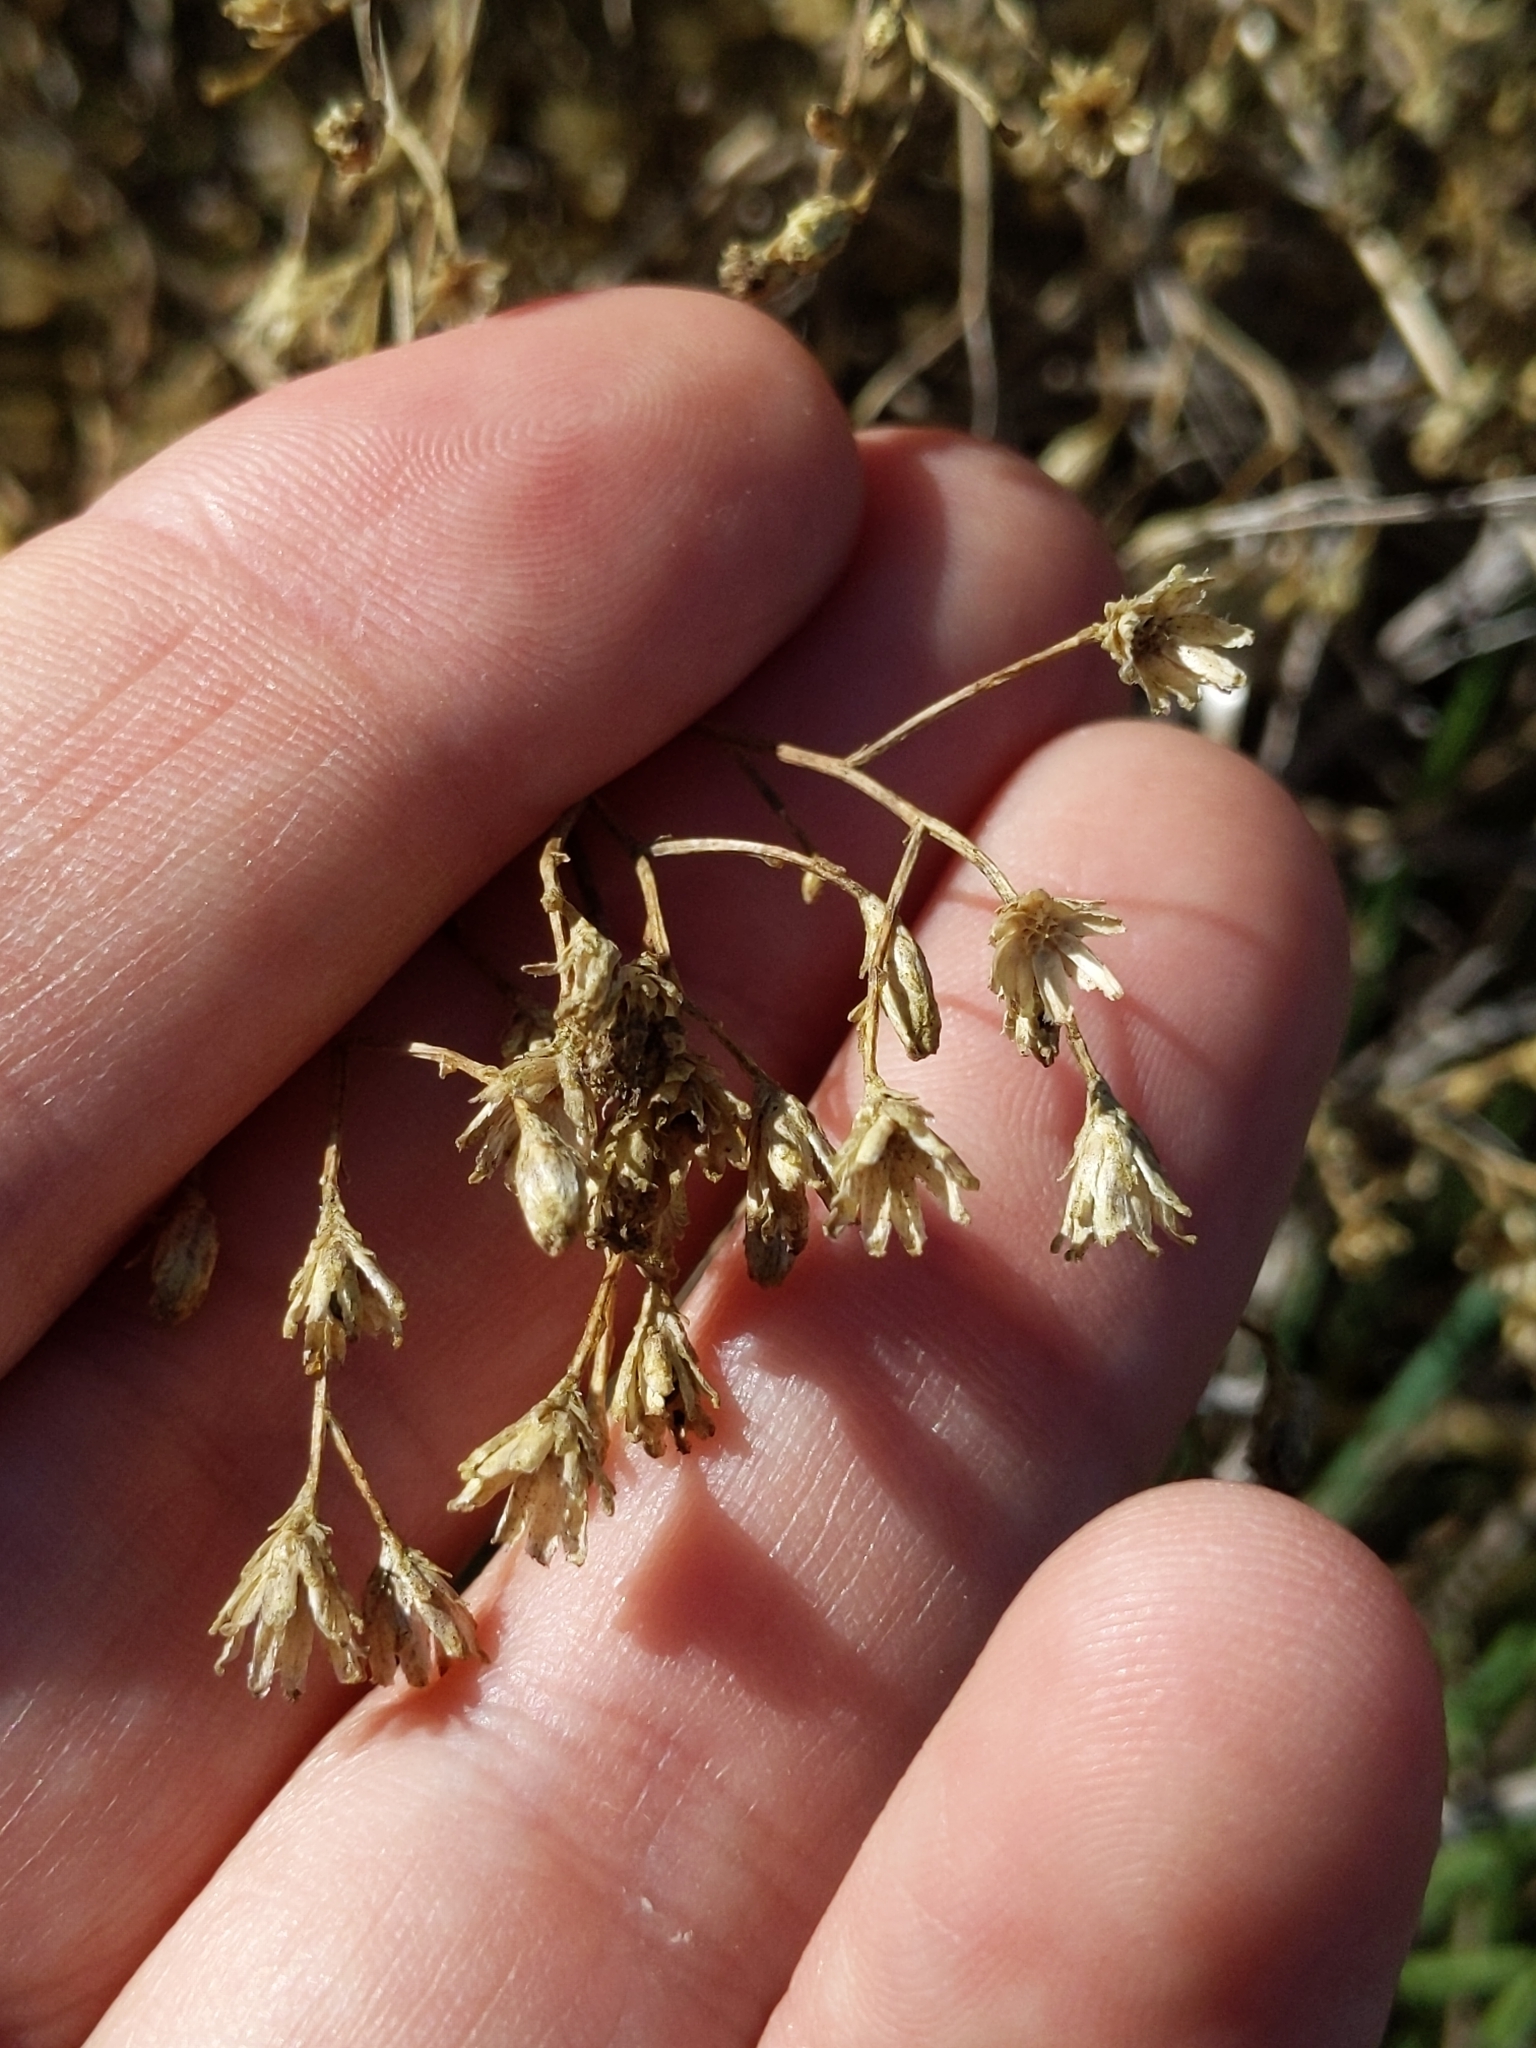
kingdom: Plantae
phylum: Tracheophyta
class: Magnoliopsida
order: Asterales
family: Asteraceae
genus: Gutierrezia
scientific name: Gutierrezia californica
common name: California matchweed
